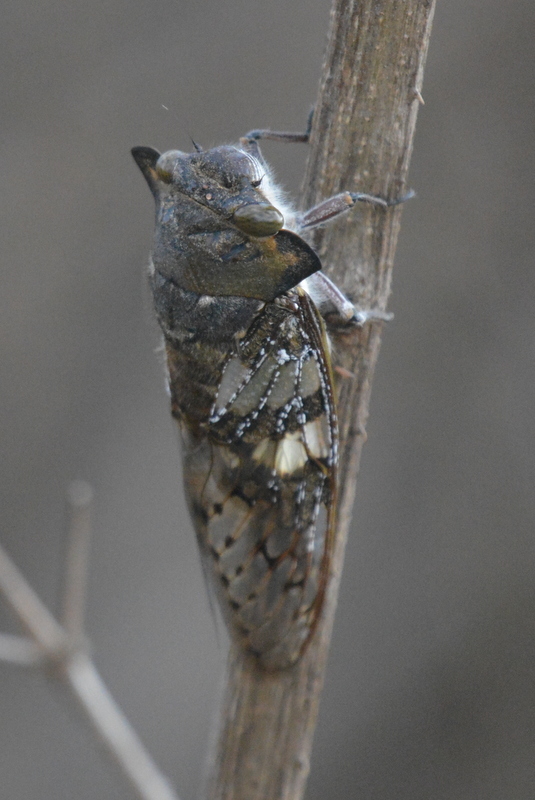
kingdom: Animalia
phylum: Arthropoda
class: Insecta
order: Hemiptera
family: Cicadidae
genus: Ioba
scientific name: Ioba leopardina
